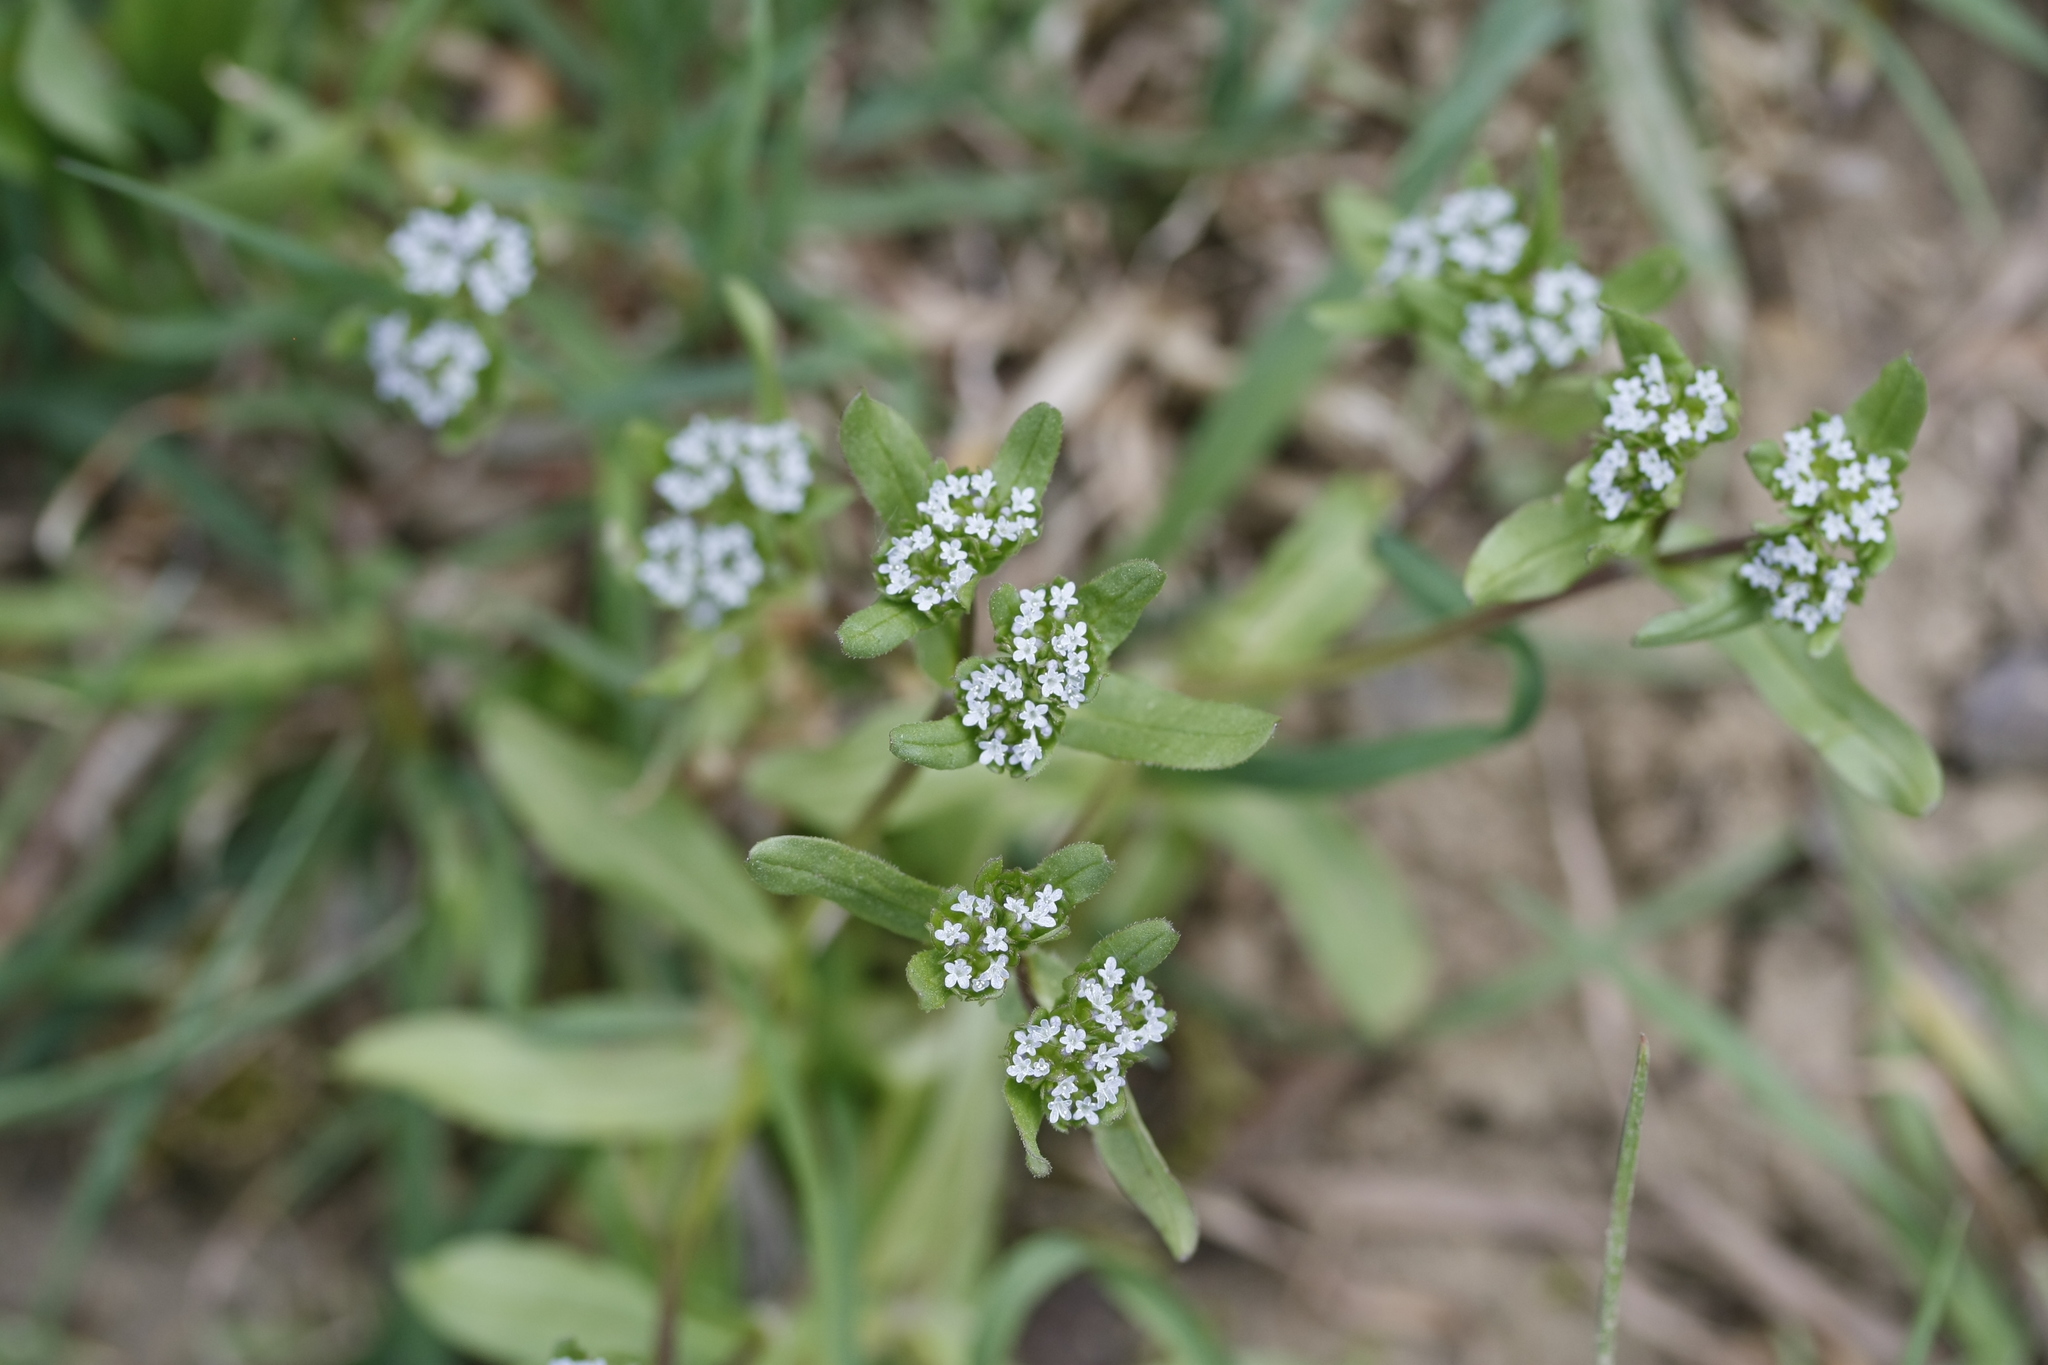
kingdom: Plantae
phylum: Tracheophyta
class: Magnoliopsida
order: Dipsacales
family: Caprifoliaceae
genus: Valerianella
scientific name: Valerianella locusta
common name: Common cornsalad
